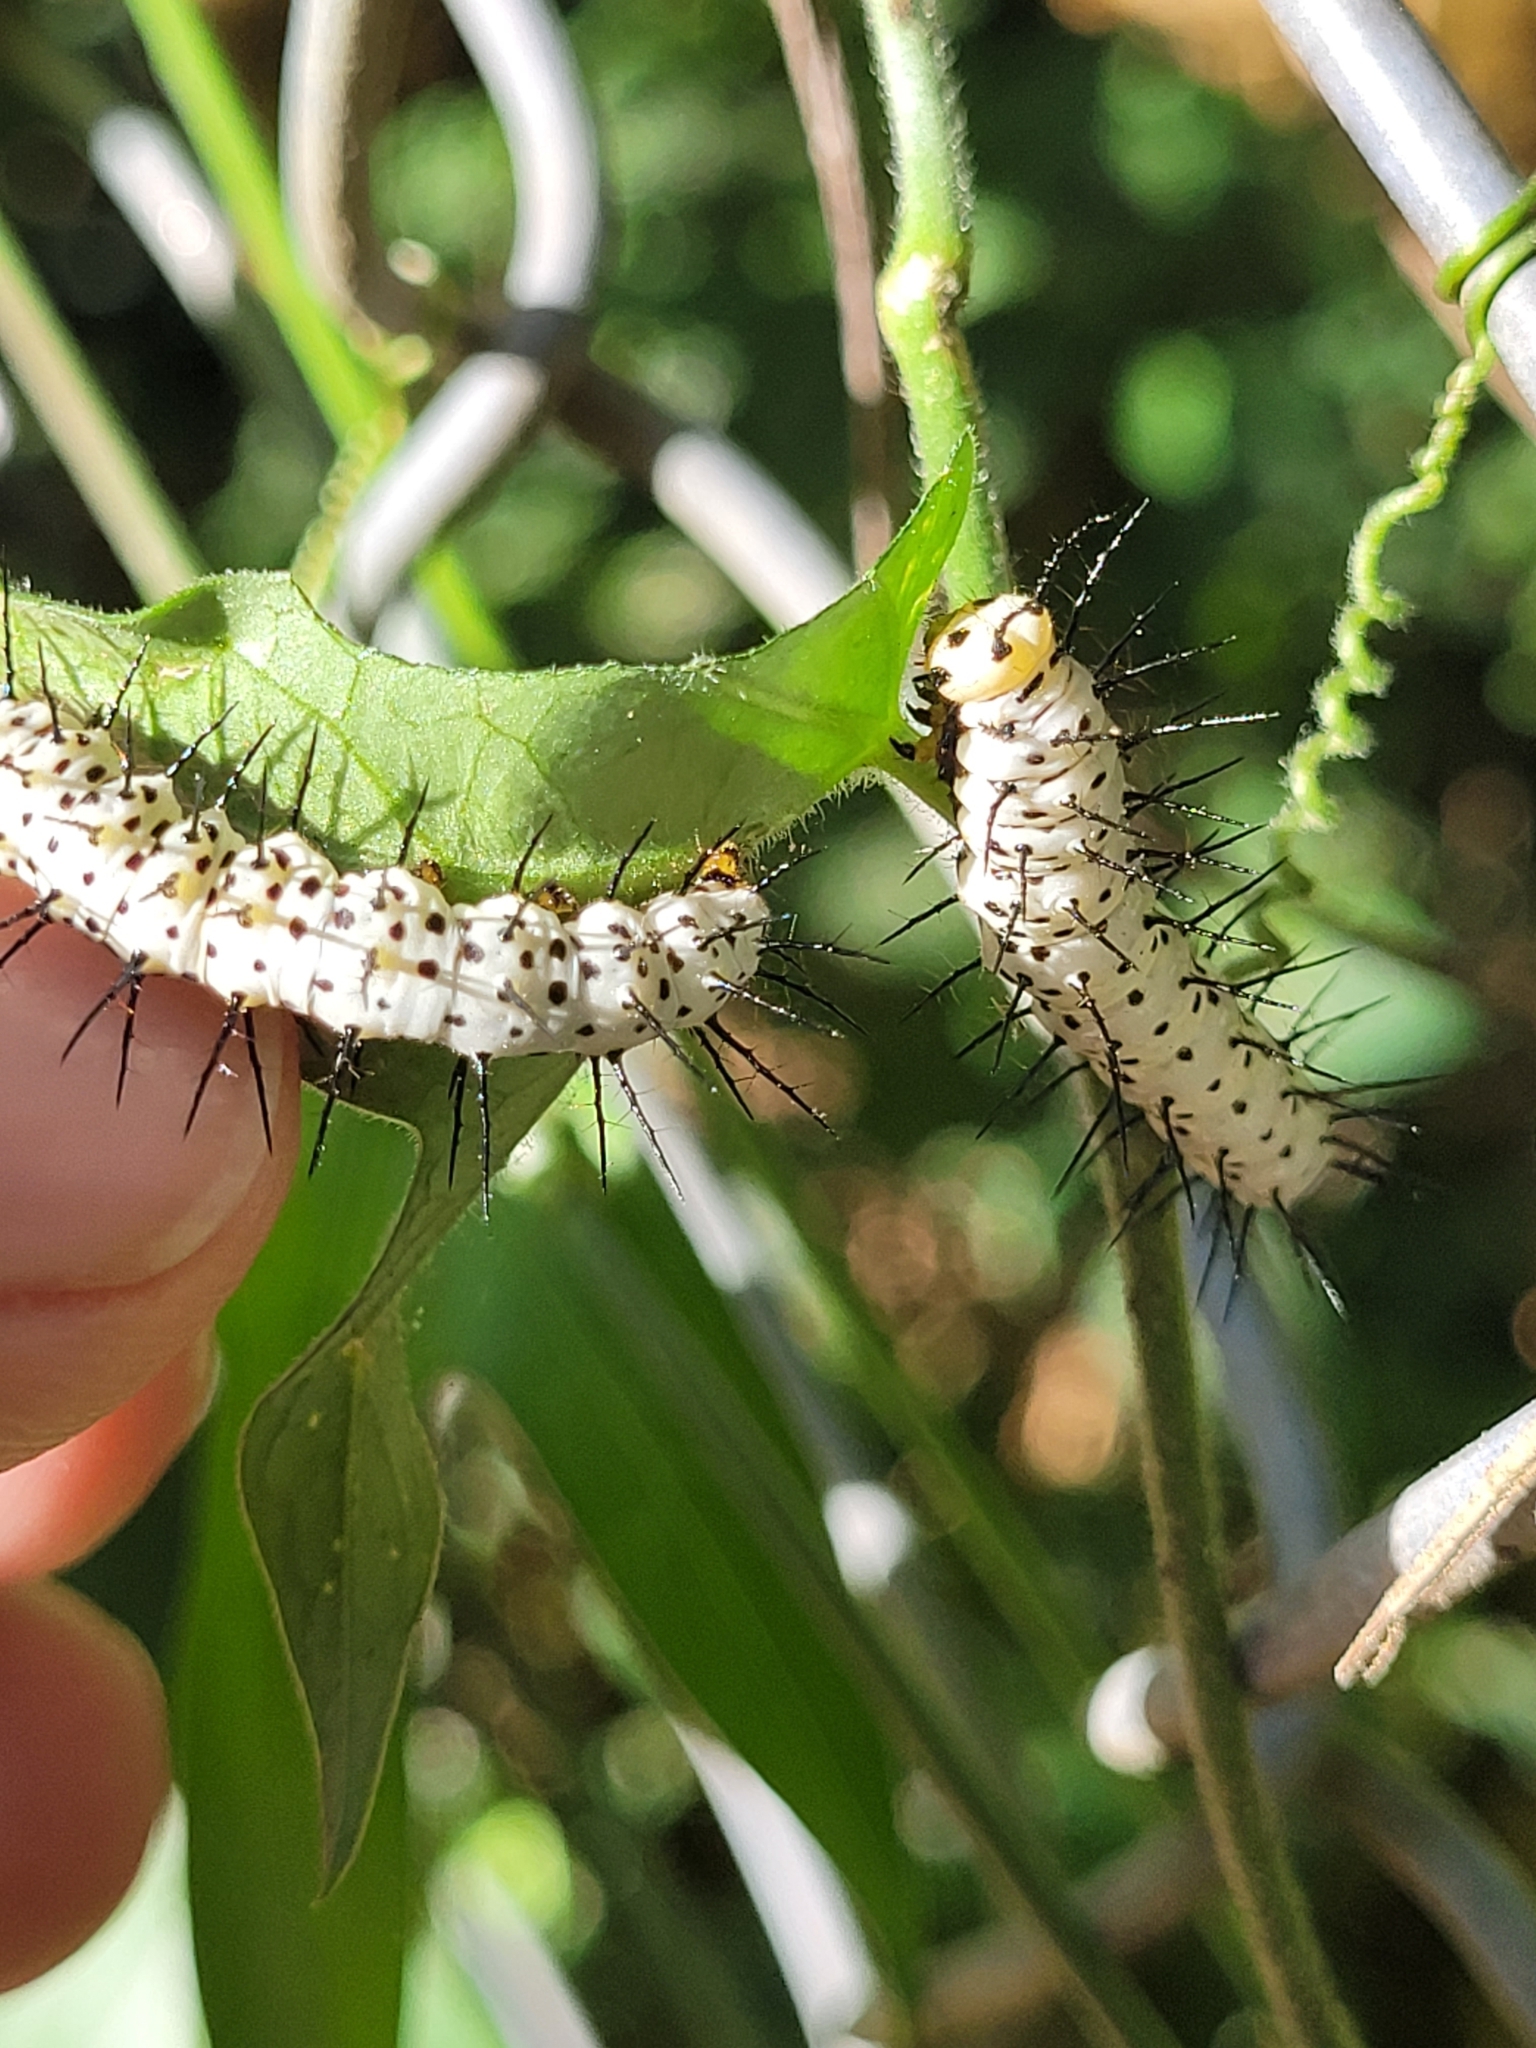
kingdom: Animalia
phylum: Arthropoda
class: Insecta
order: Lepidoptera
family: Nymphalidae
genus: Heliconius
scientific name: Heliconius charithonia
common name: Zebra long wing
